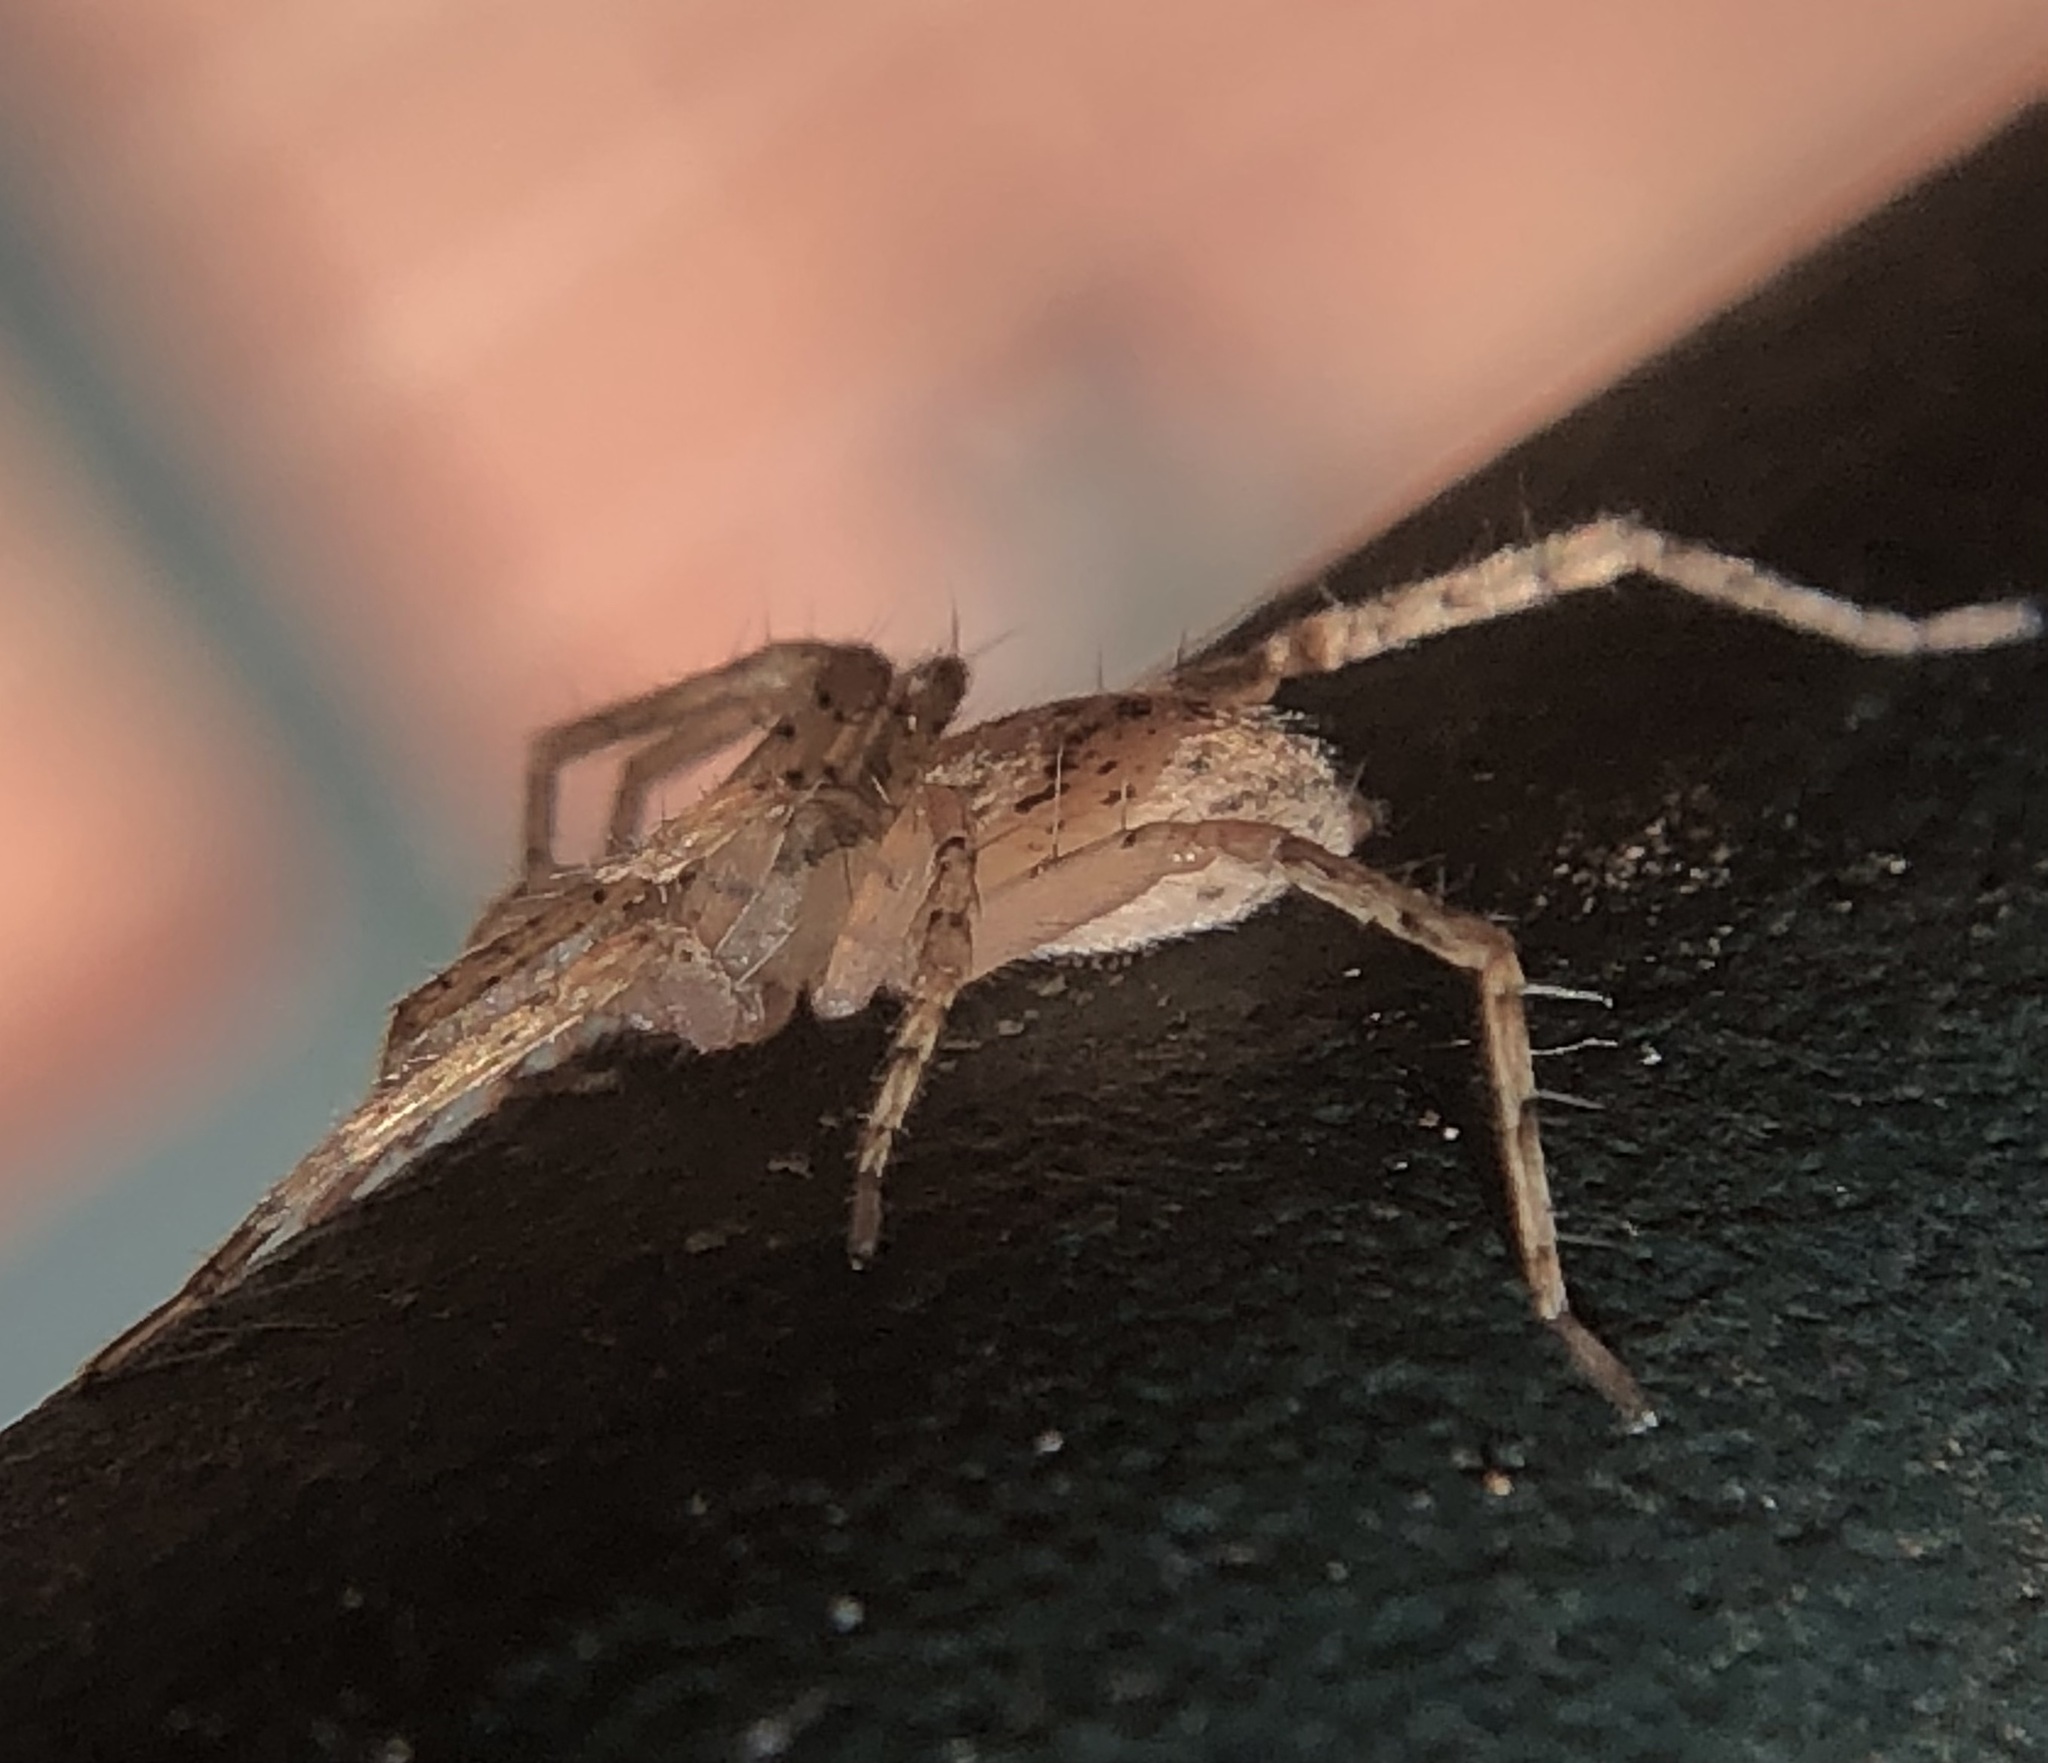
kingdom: Animalia
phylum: Arthropoda
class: Arachnida
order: Araneae
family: Anyphaenidae
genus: Anyphaena
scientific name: Anyphaena pectorosa
